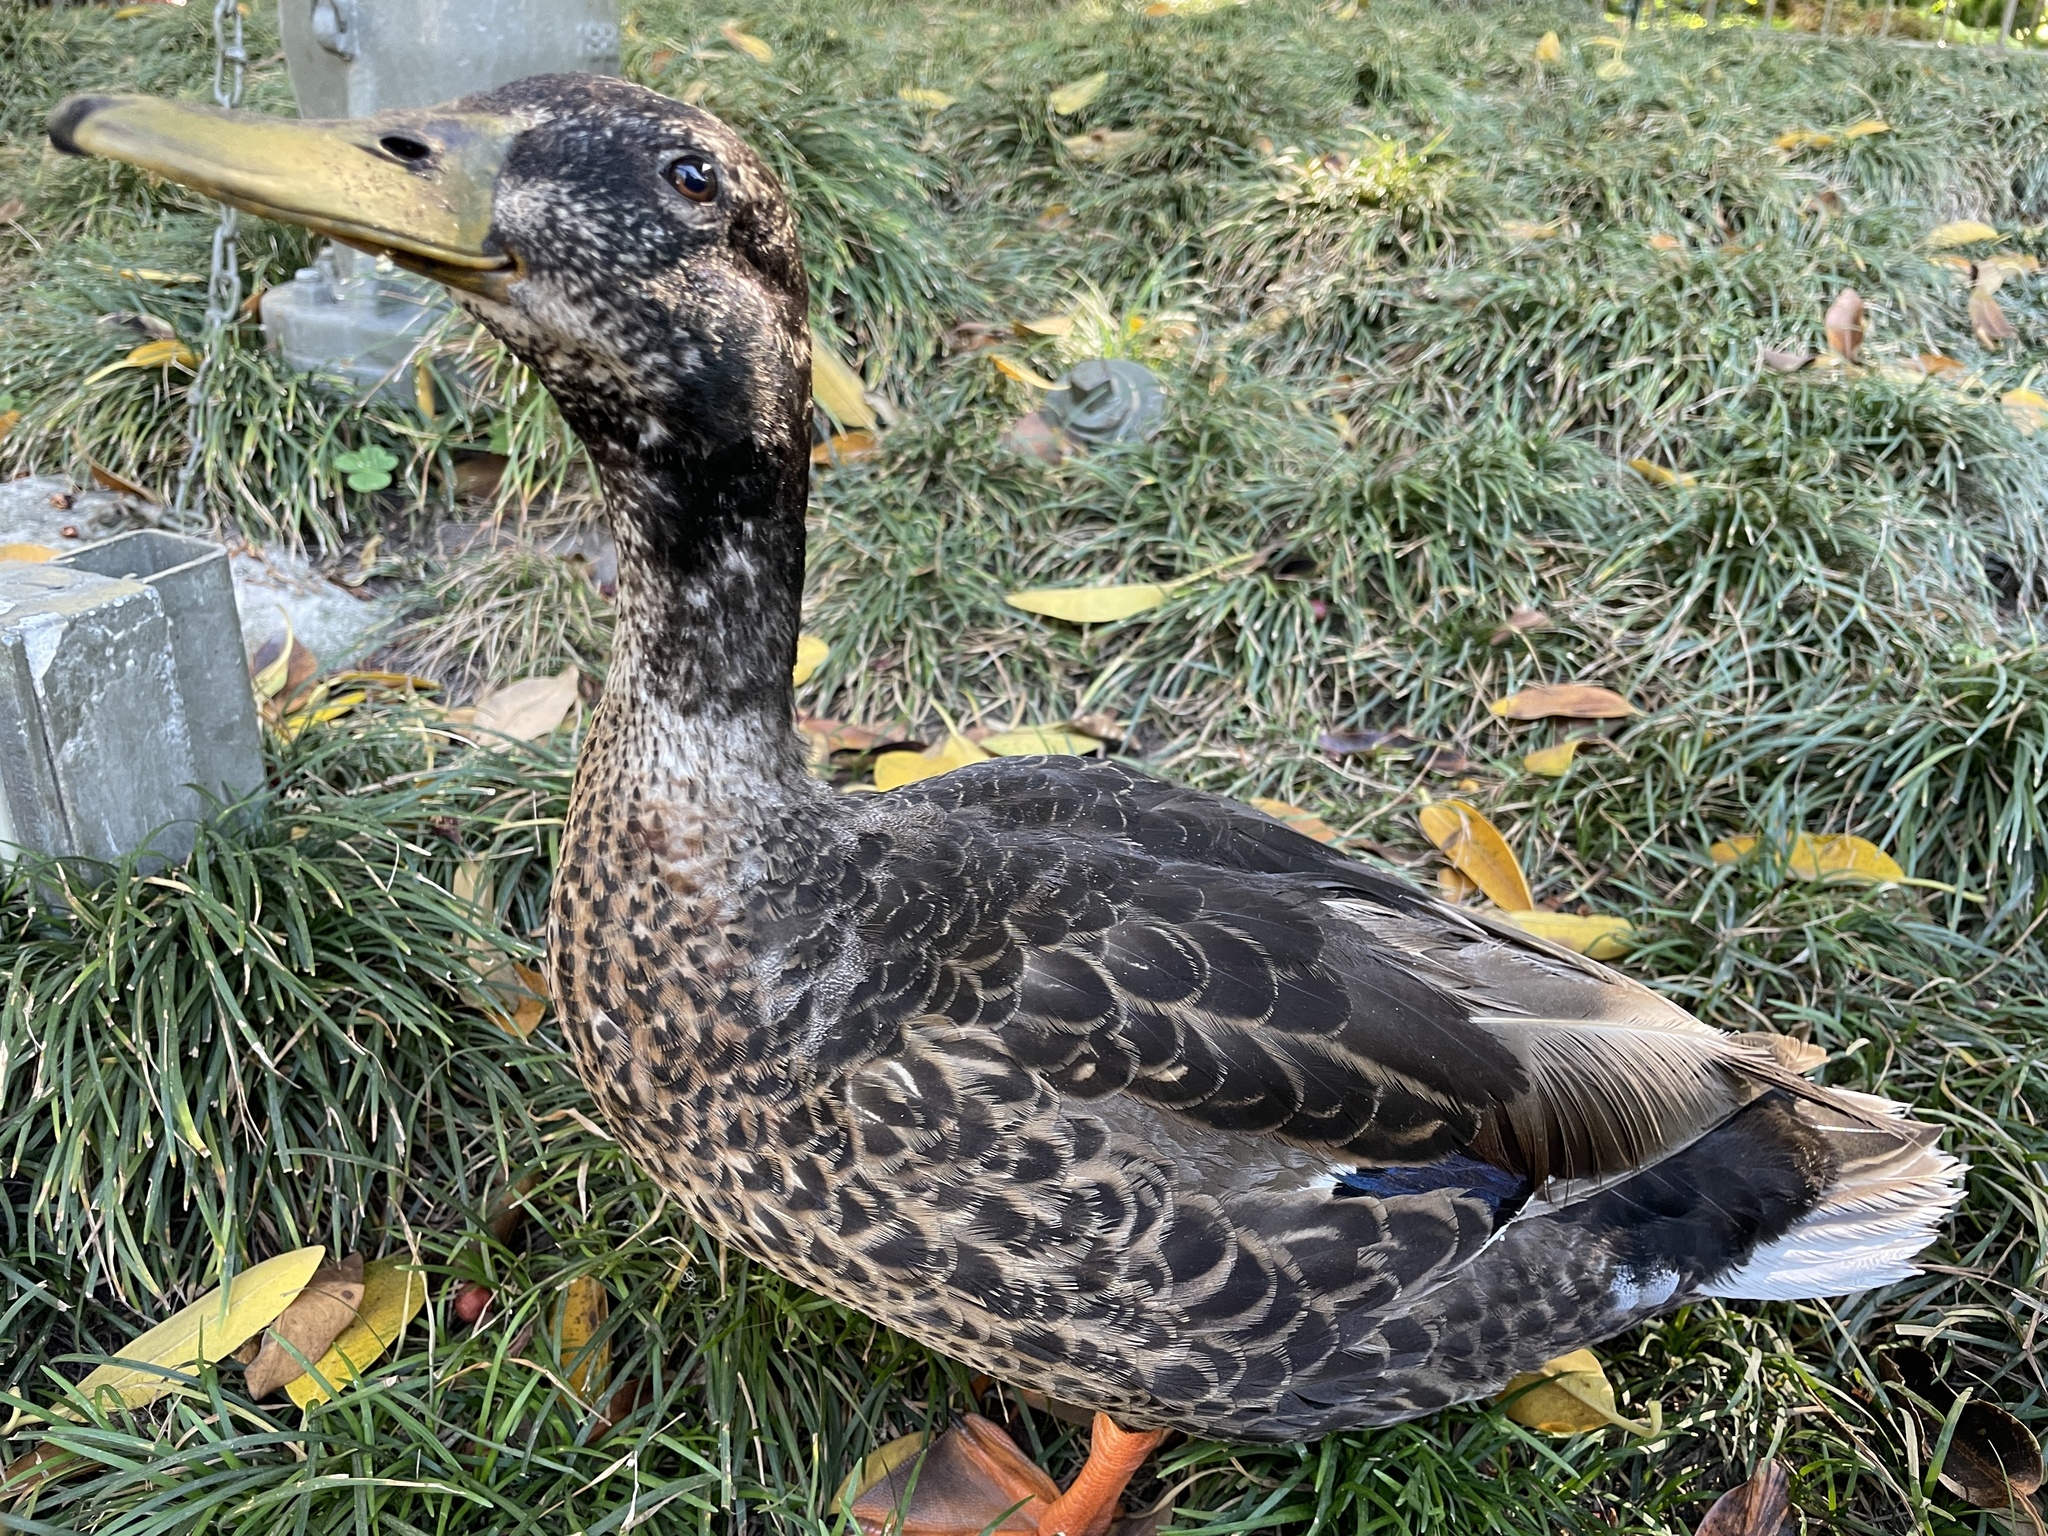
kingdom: Animalia
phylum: Chordata
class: Aves
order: Anseriformes
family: Anatidae
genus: Anas
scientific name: Anas platyrhynchos
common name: Mallard
